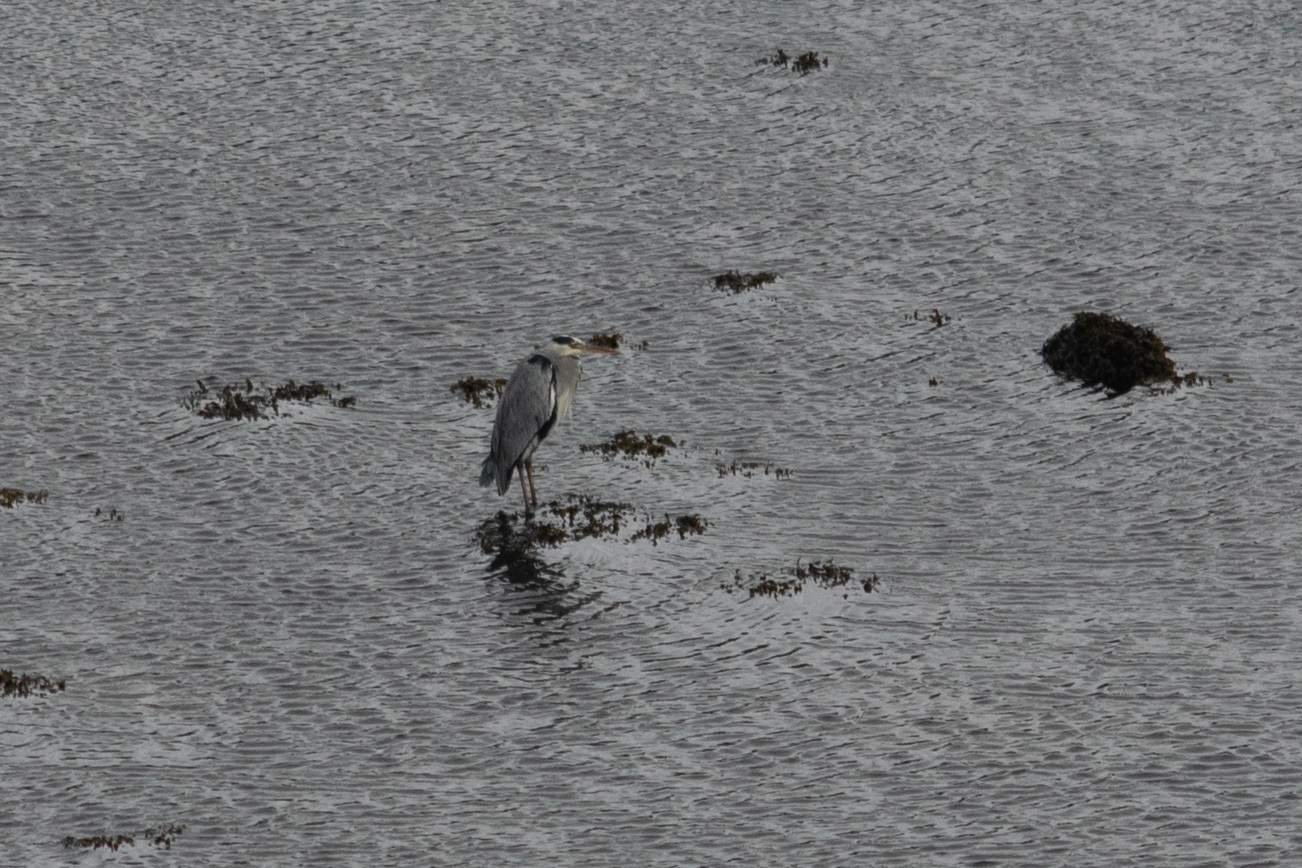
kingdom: Animalia
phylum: Chordata
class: Aves
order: Pelecaniformes
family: Ardeidae
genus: Ardea
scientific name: Ardea cinerea
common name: Grey heron
